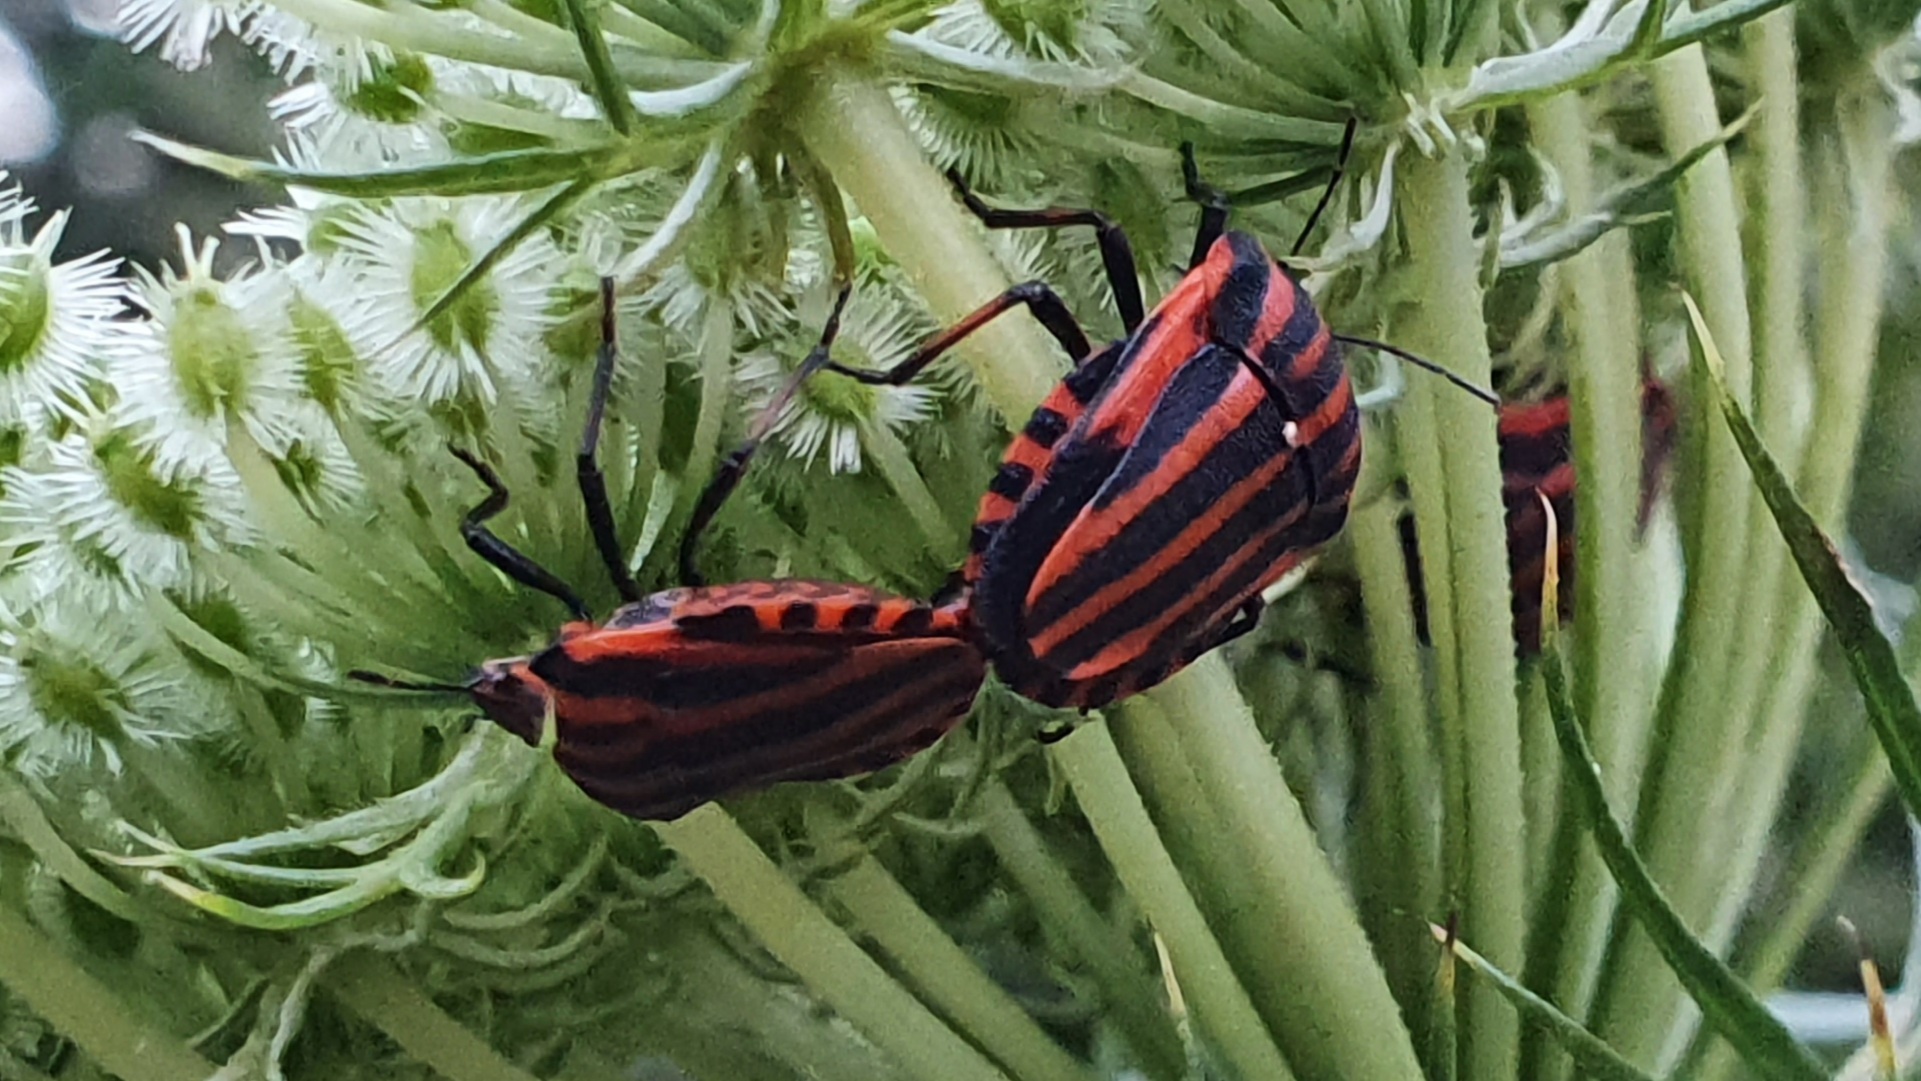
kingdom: Animalia
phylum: Arthropoda
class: Insecta
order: Hemiptera
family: Pentatomidae
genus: Graphosoma
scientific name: Graphosoma italicum
